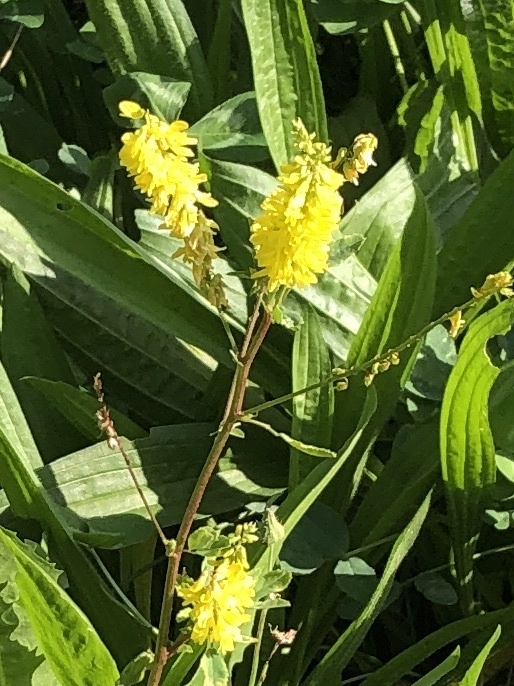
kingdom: Plantae
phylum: Tracheophyta
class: Magnoliopsida
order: Fabales
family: Fabaceae
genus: Melilotus
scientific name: Melilotus officinalis
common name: Sweetclover
